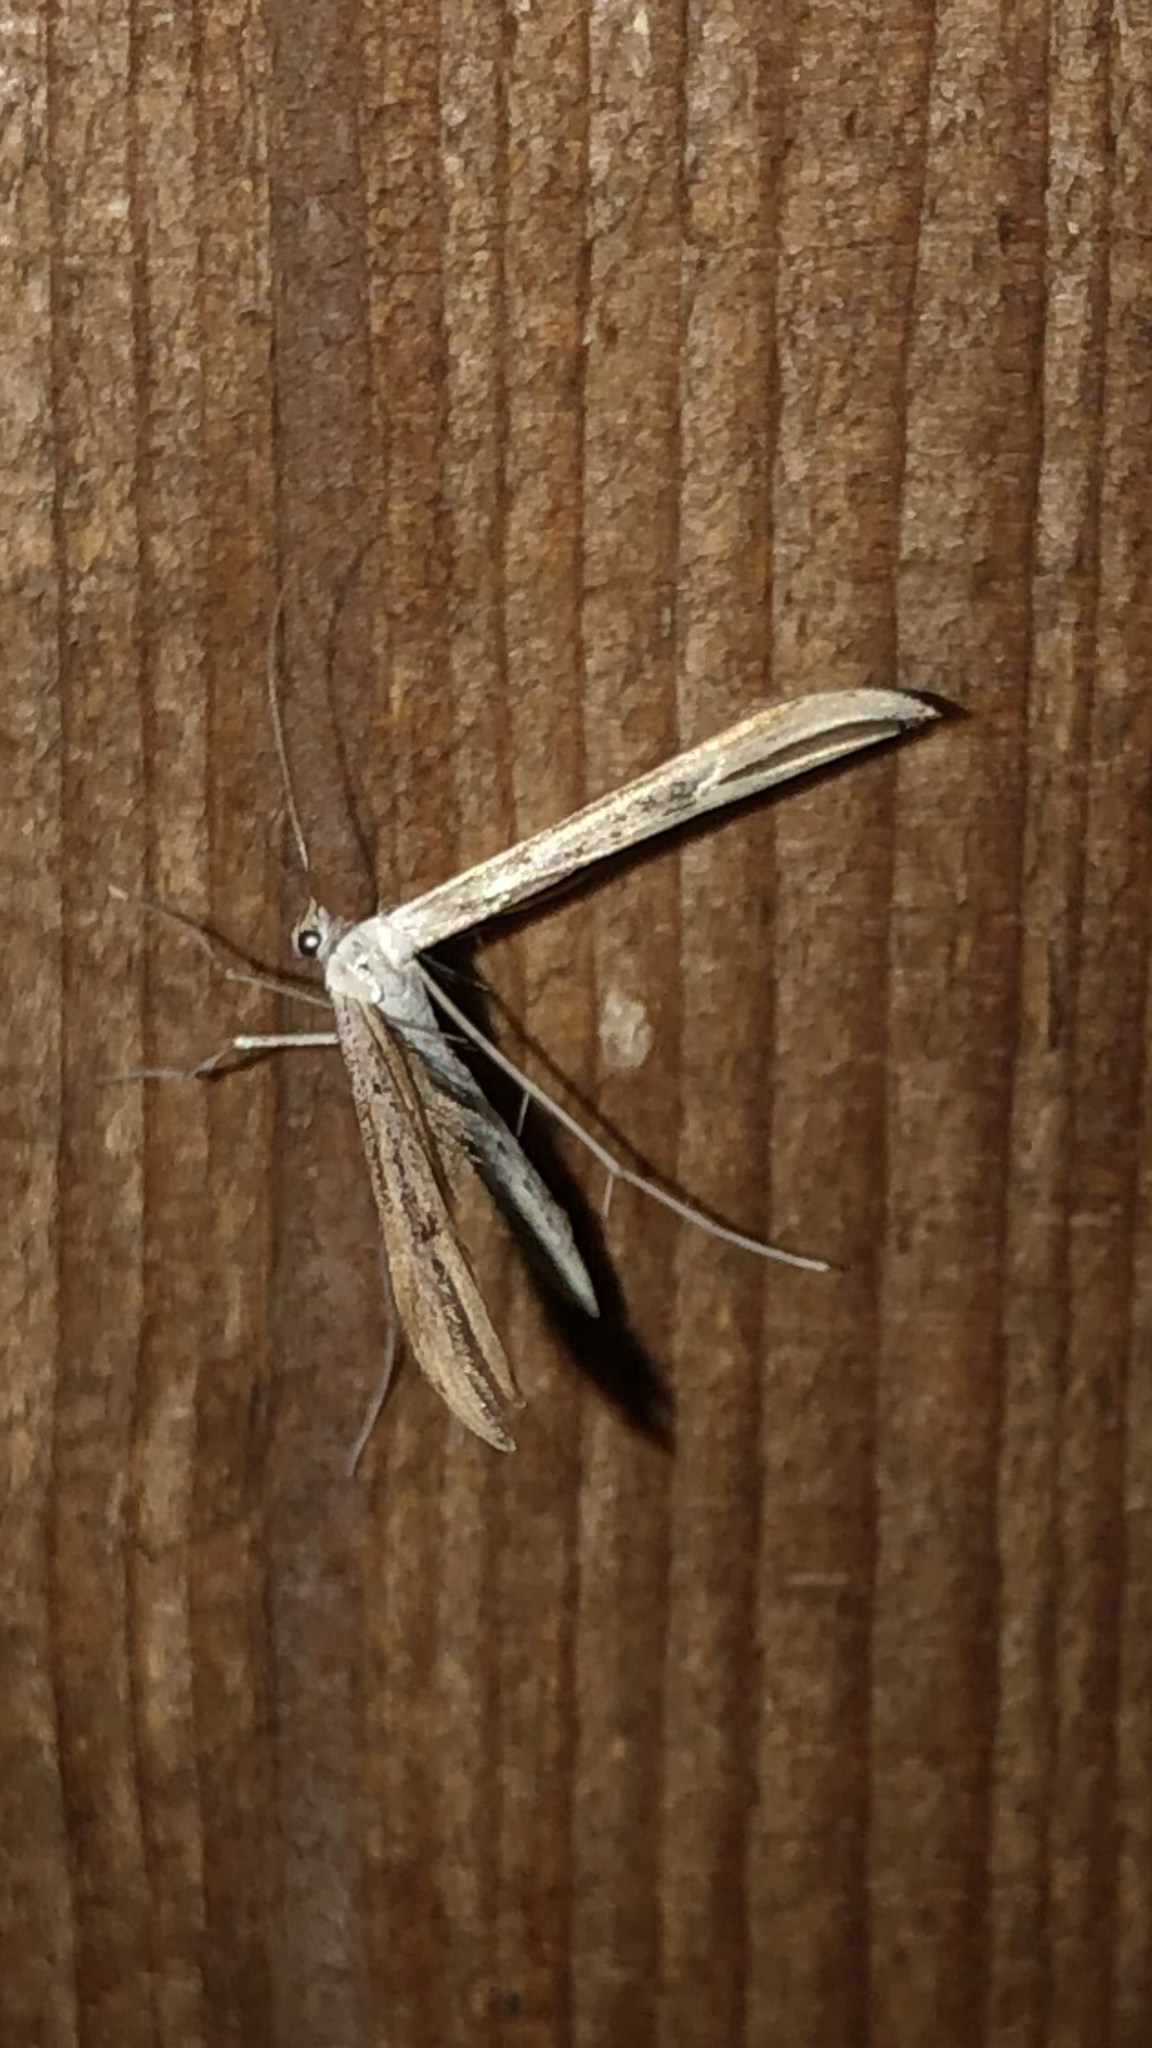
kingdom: Animalia
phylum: Arthropoda
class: Insecta
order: Lepidoptera
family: Pterophoridae
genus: Emmelina
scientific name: Emmelina monodactyla
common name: Common plume
